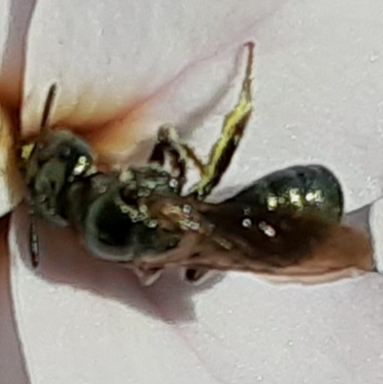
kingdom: Animalia
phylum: Arthropoda
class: Insecta
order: Hymenoptera
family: Apidae
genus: Zadontomerus
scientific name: Zadontomerus
